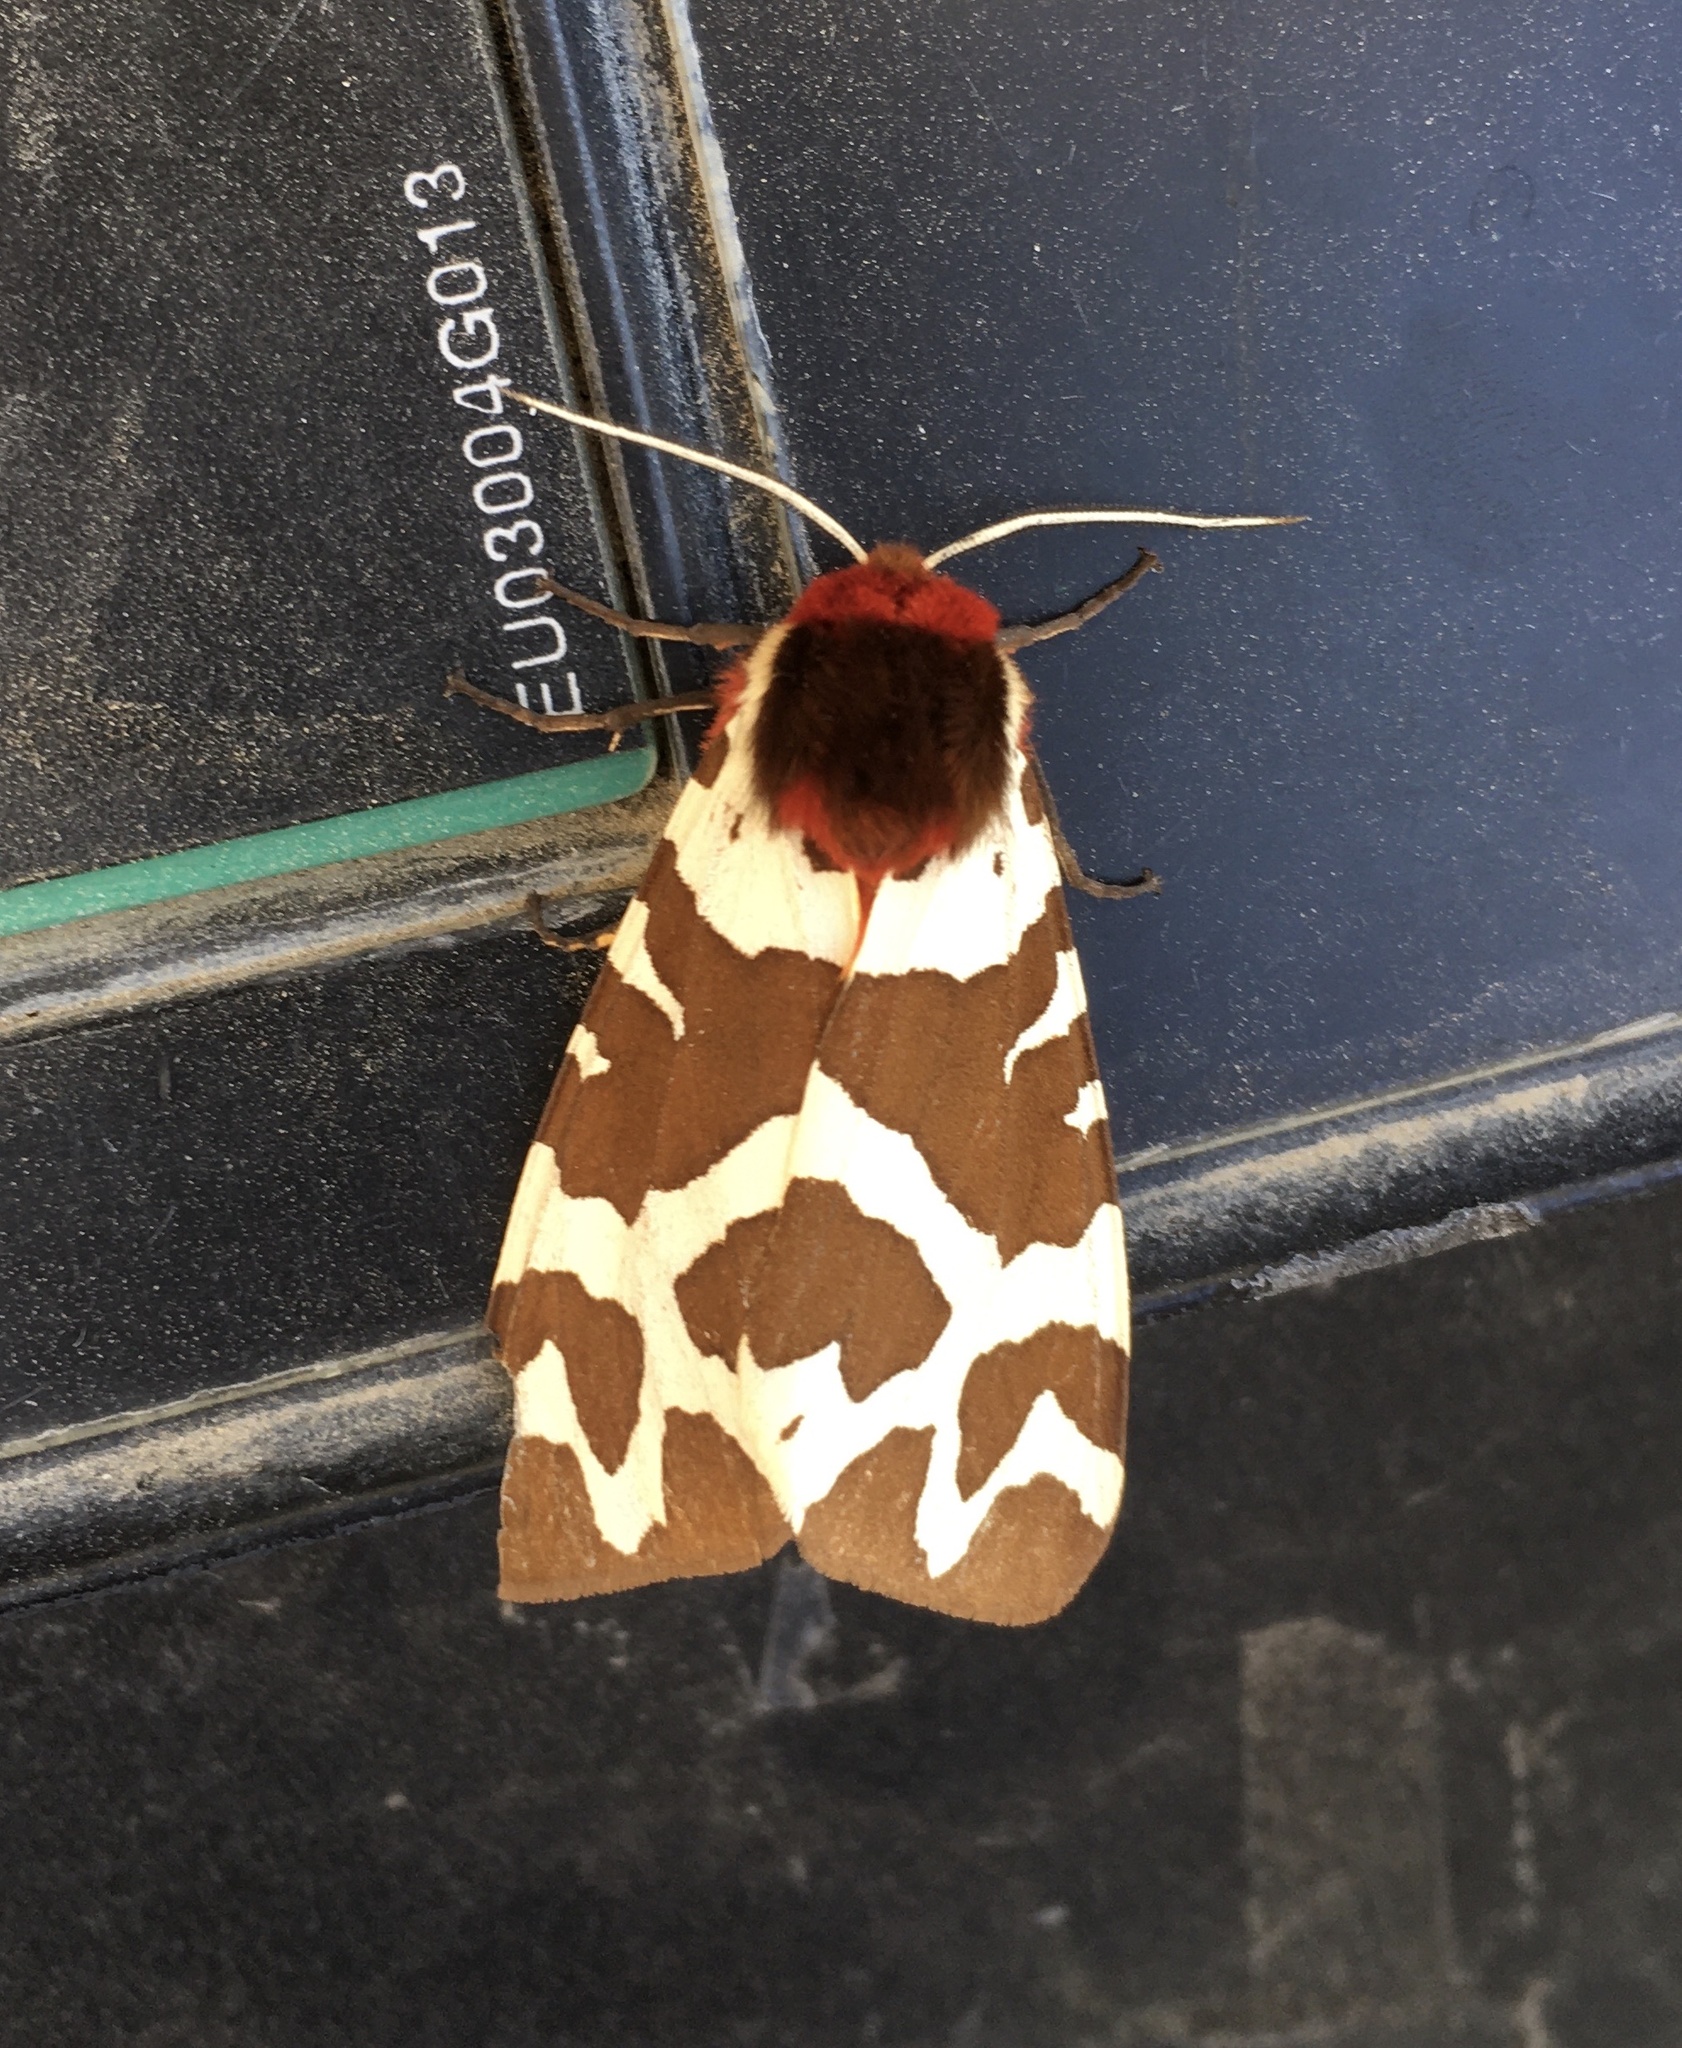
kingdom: Animalia
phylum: Arthropoda
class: Insecta
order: Lepidoptera
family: Erebidae
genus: Arctia
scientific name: Arctia caja
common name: Garden tiger
